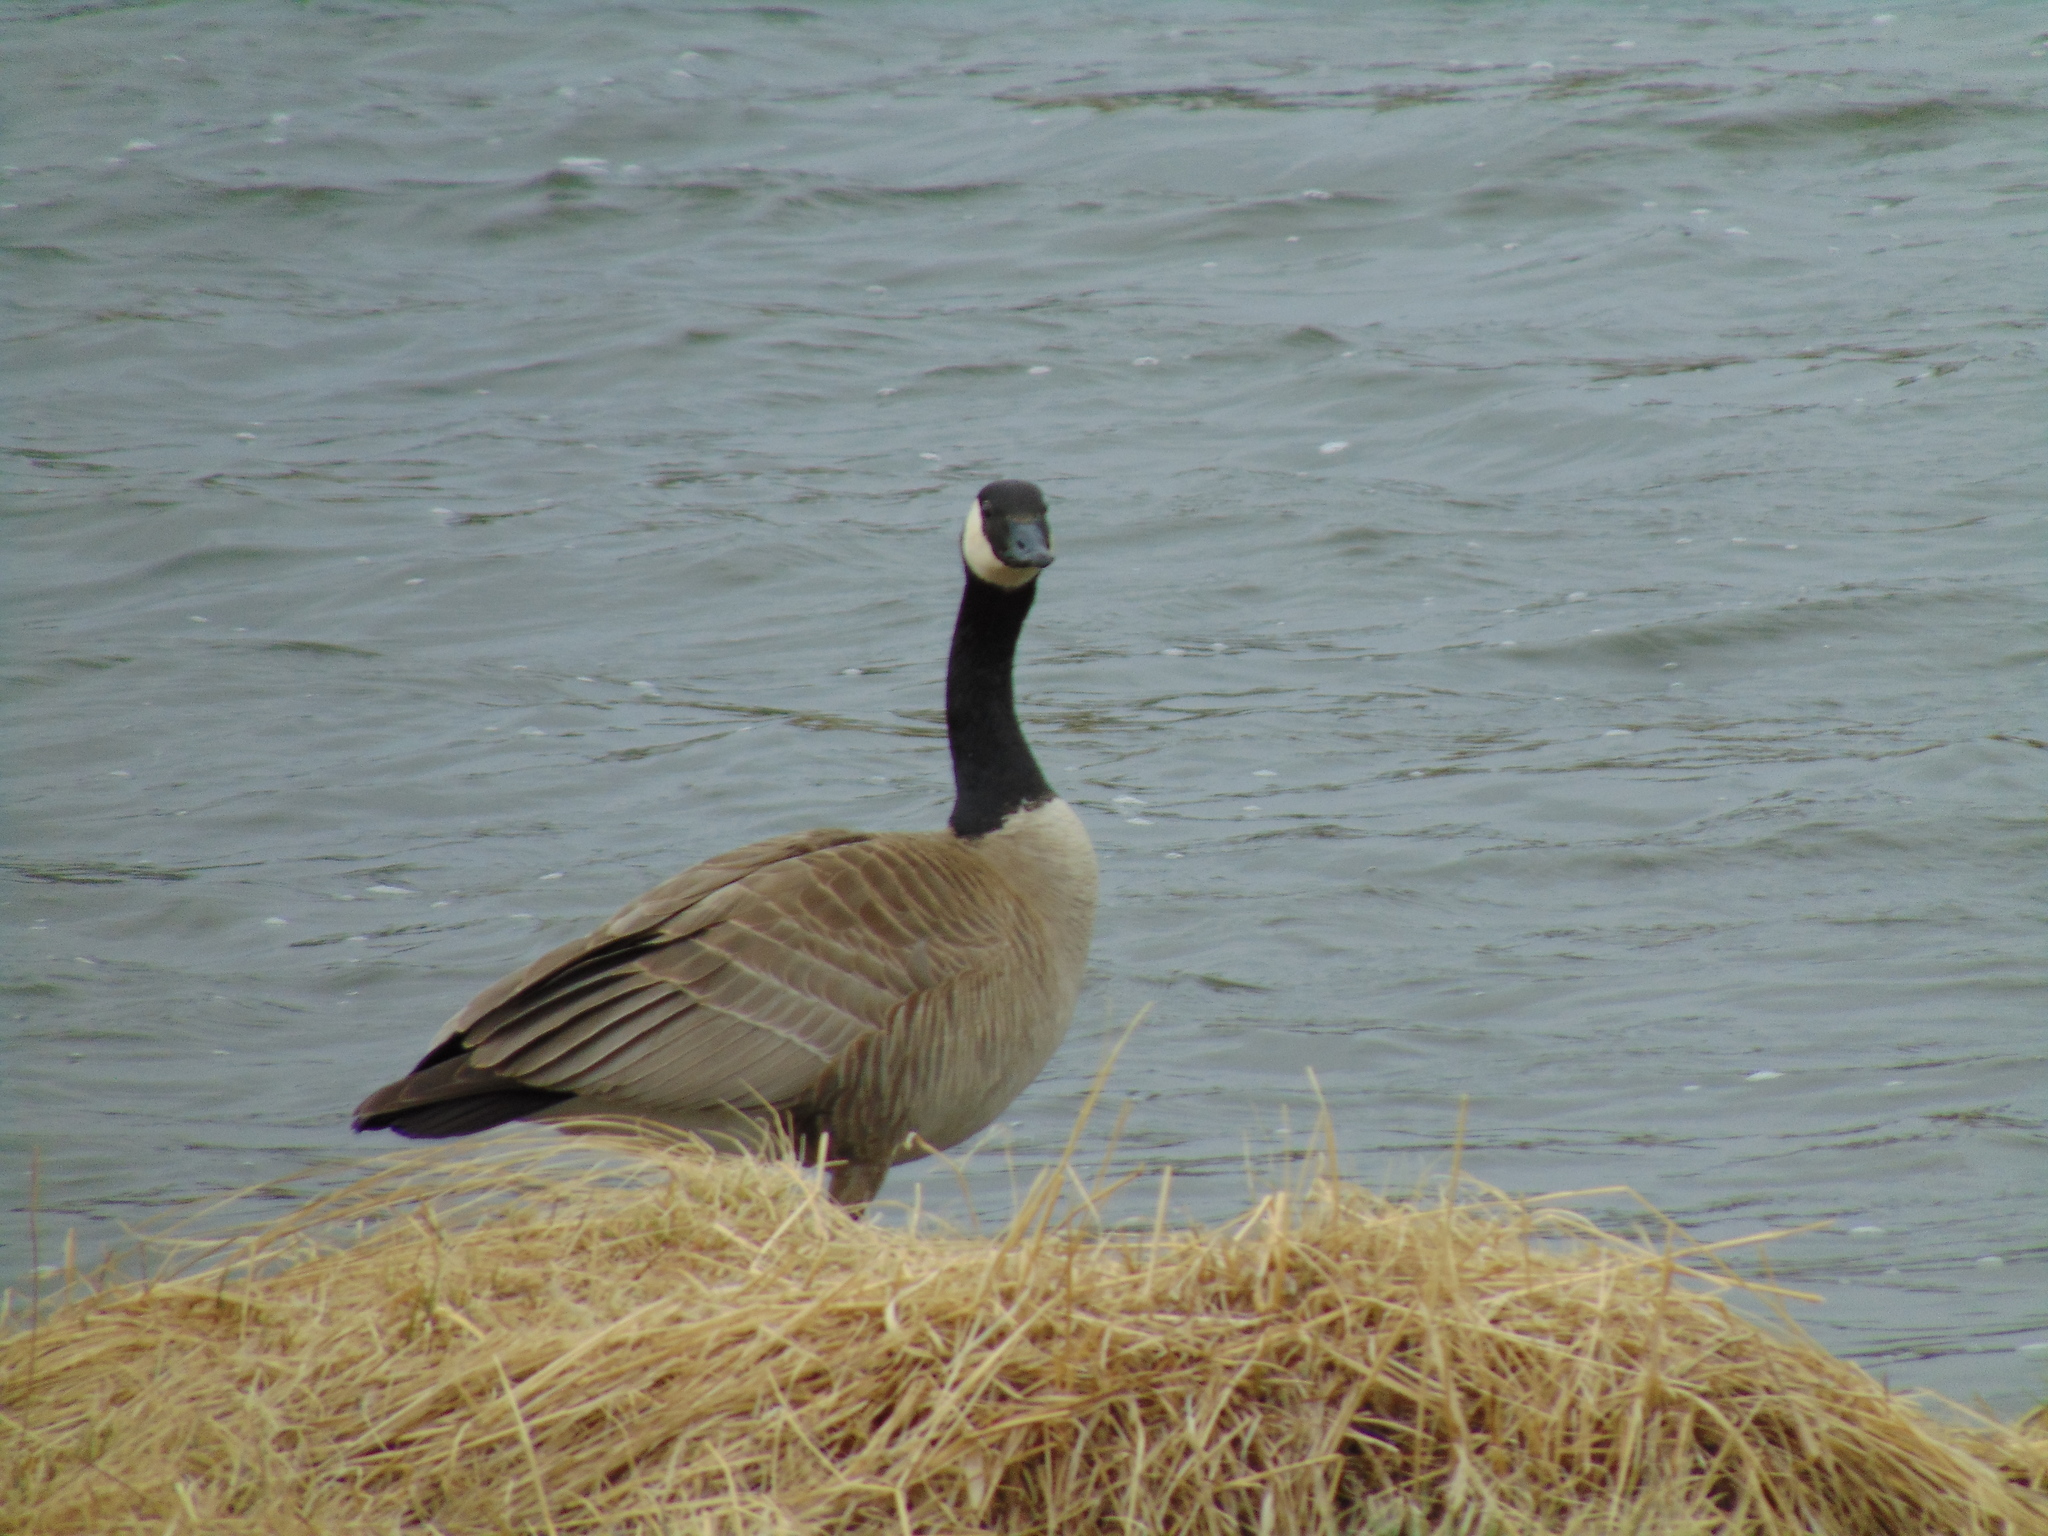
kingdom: Animalia
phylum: Chordata
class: Aves
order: Anseriformes
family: Anatidae
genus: Branta
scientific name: Branta canadensis
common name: Canada goose
